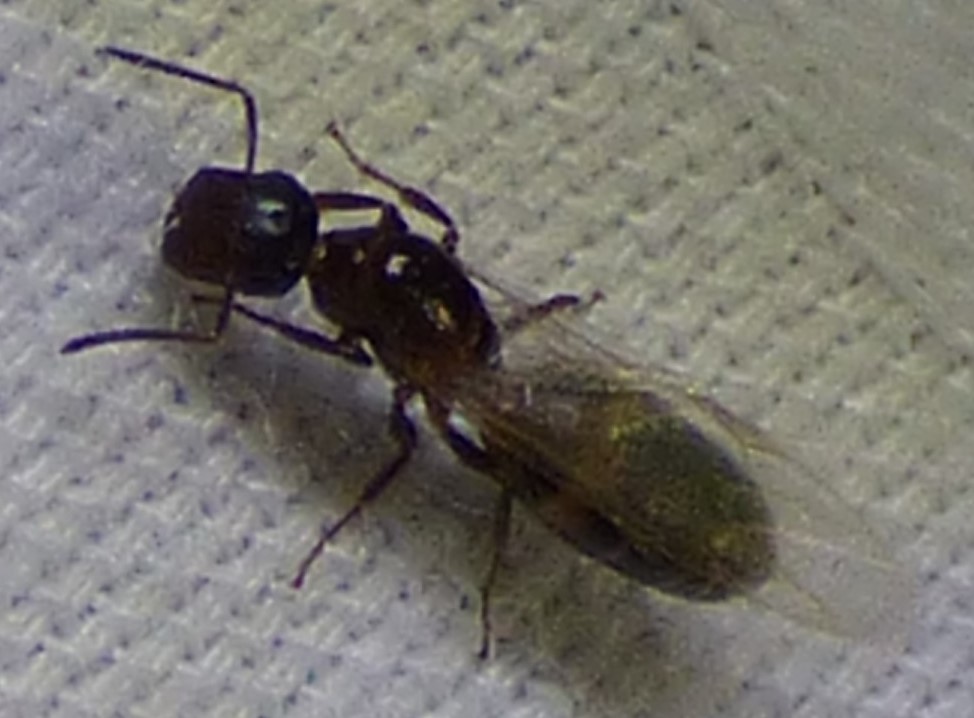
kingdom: Animalia
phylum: Arthropoda
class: Insecta
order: Hymenoptera
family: Formicidae
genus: Colobopsis
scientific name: Colobopsis
